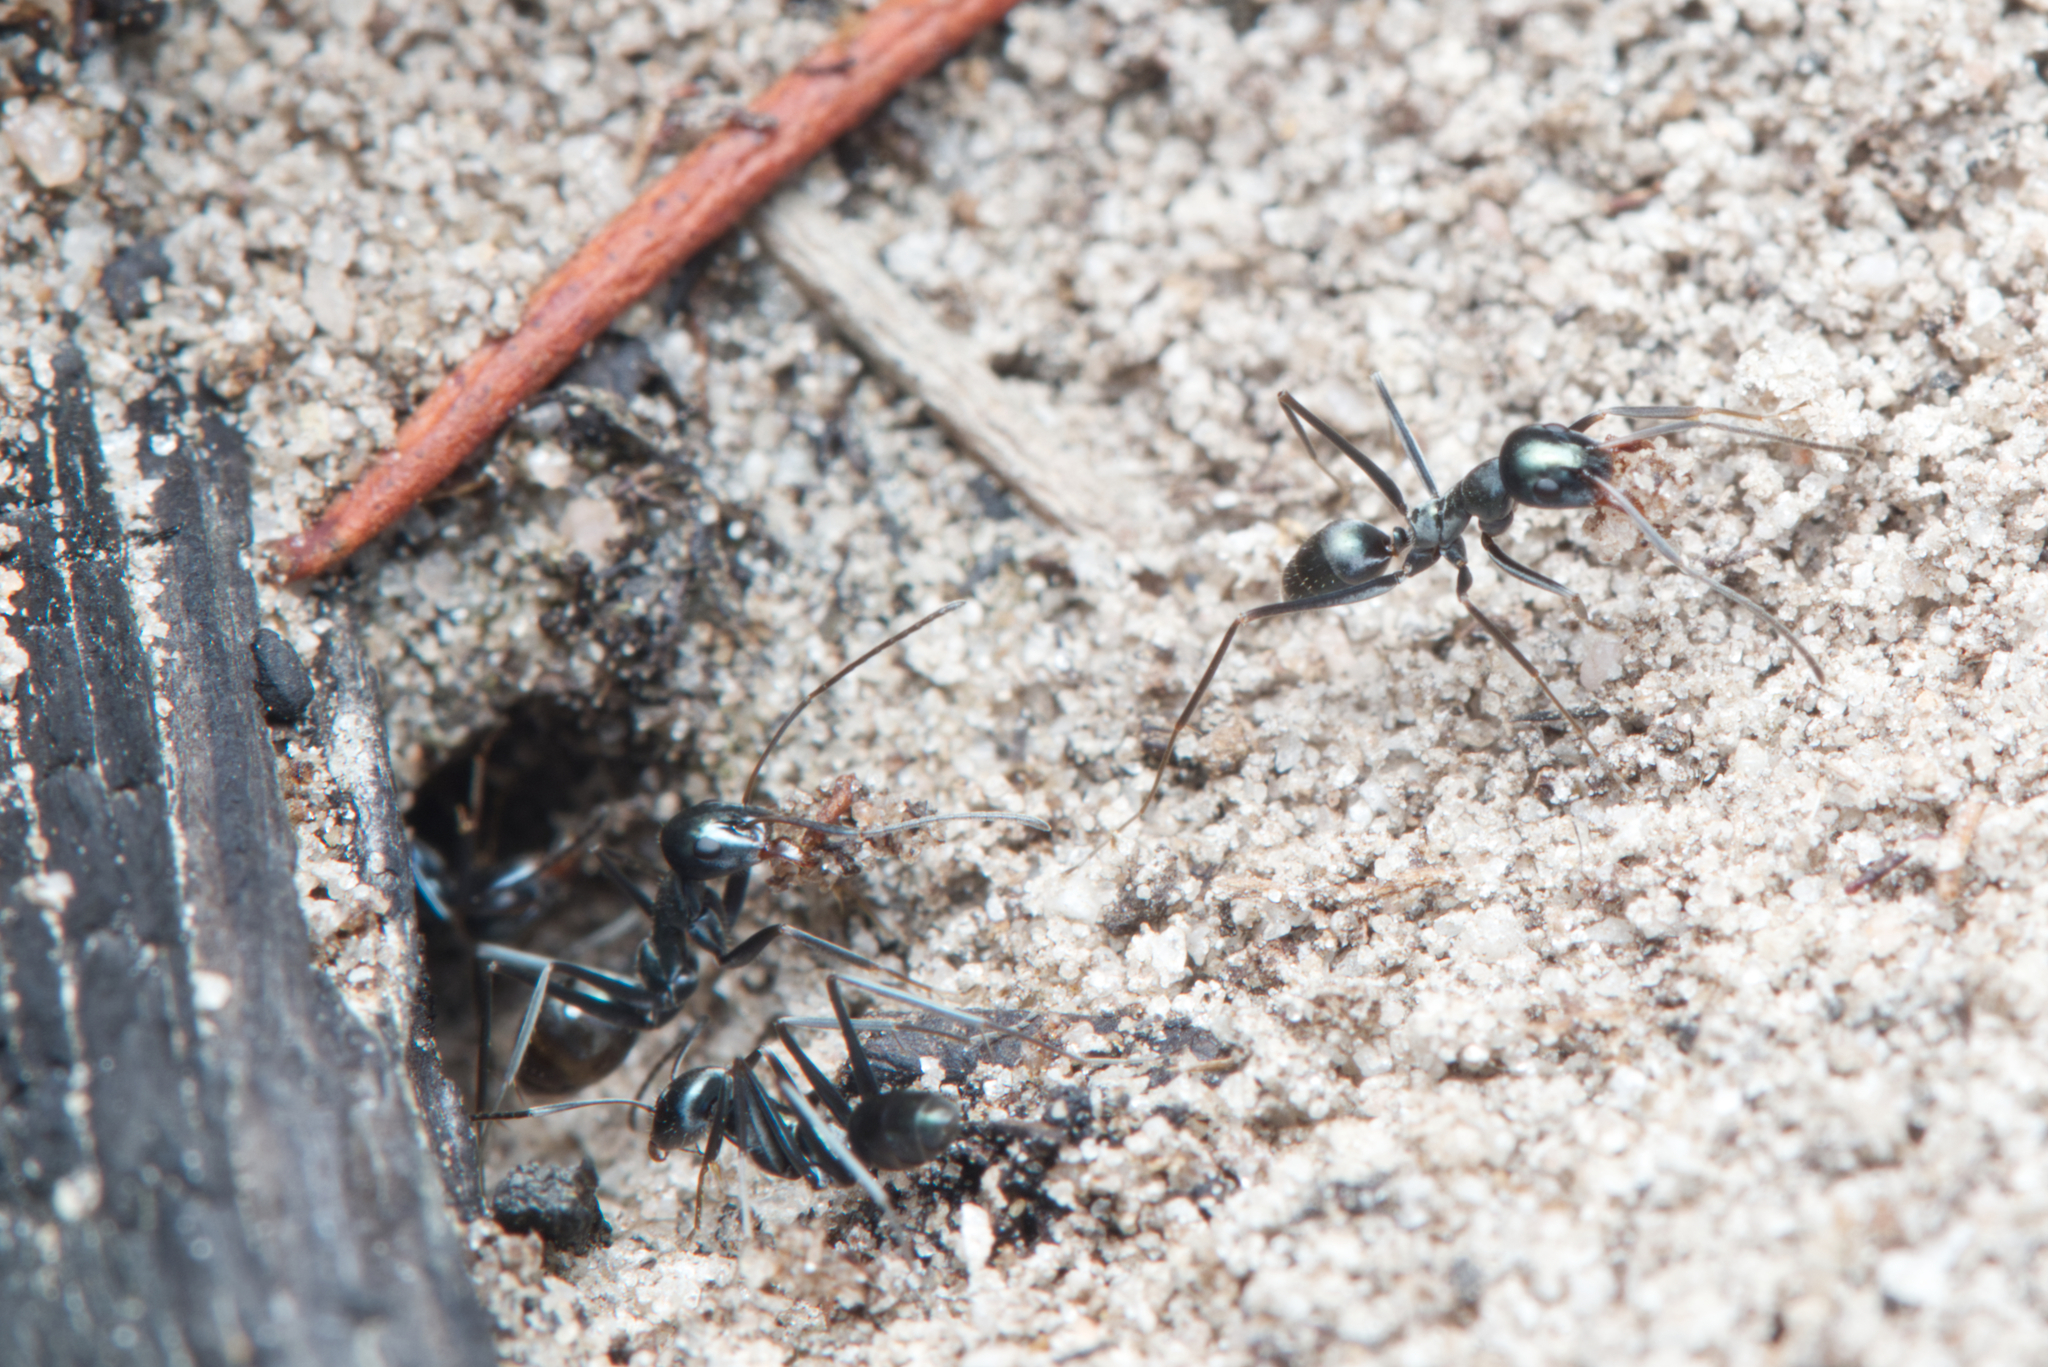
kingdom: Animalia
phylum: Arthropoda
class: Insecta
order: Hymenoptera
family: Formicidae
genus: Iridomyrmex
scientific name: Iridomyrmex bicknelli
